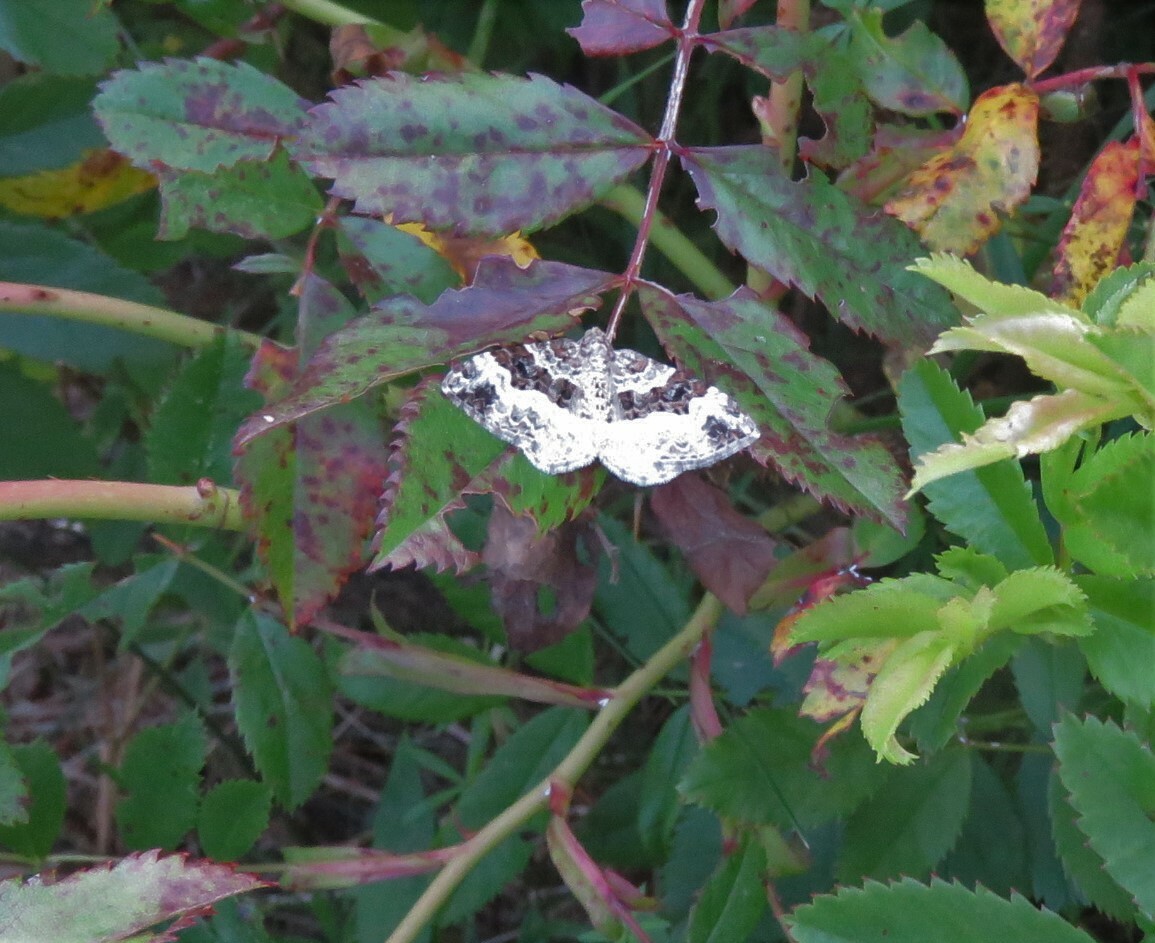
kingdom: Animalia
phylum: Arthropoda
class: Insecta
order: Lepidoptera
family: Geometridae
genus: Epirrhoe
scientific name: Epirrhoe alternata
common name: Common carpet
